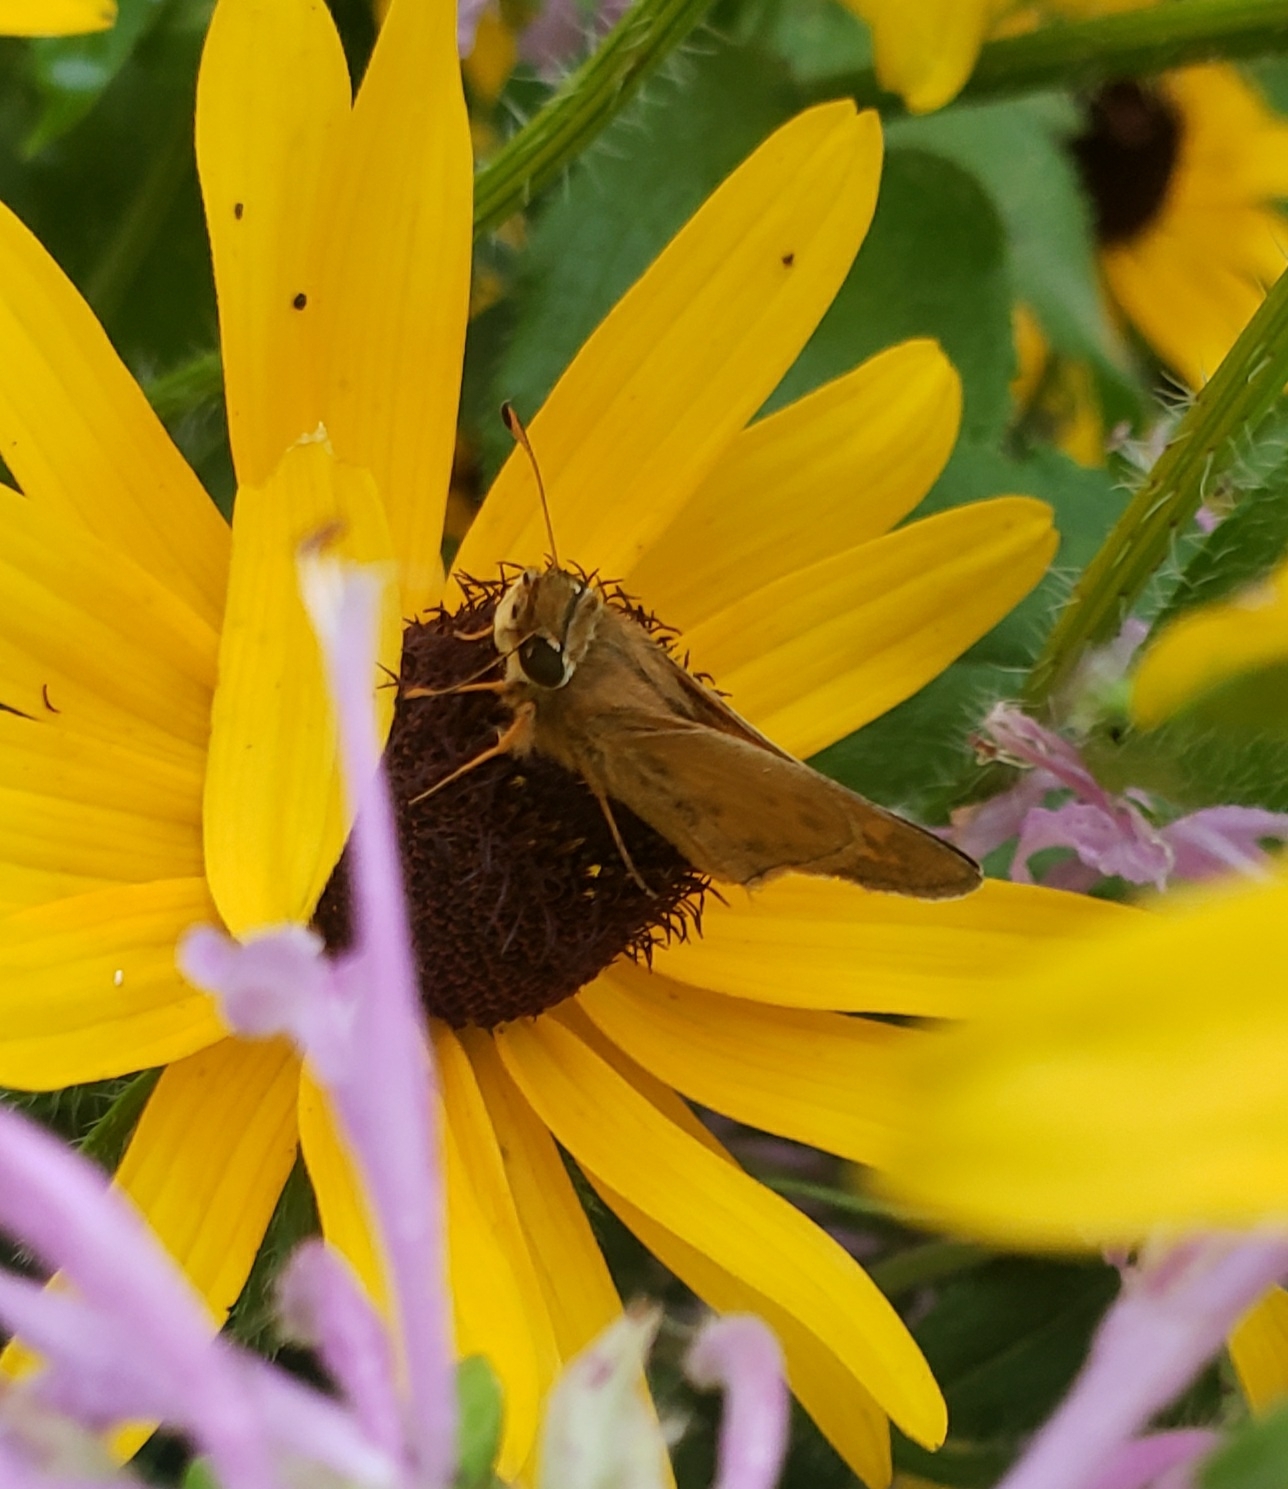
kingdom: Animalia
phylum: Arthropoda
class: Insecta
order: Lepidoptera
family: Hesperiidae
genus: Atalopedes
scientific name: Atalopedes
